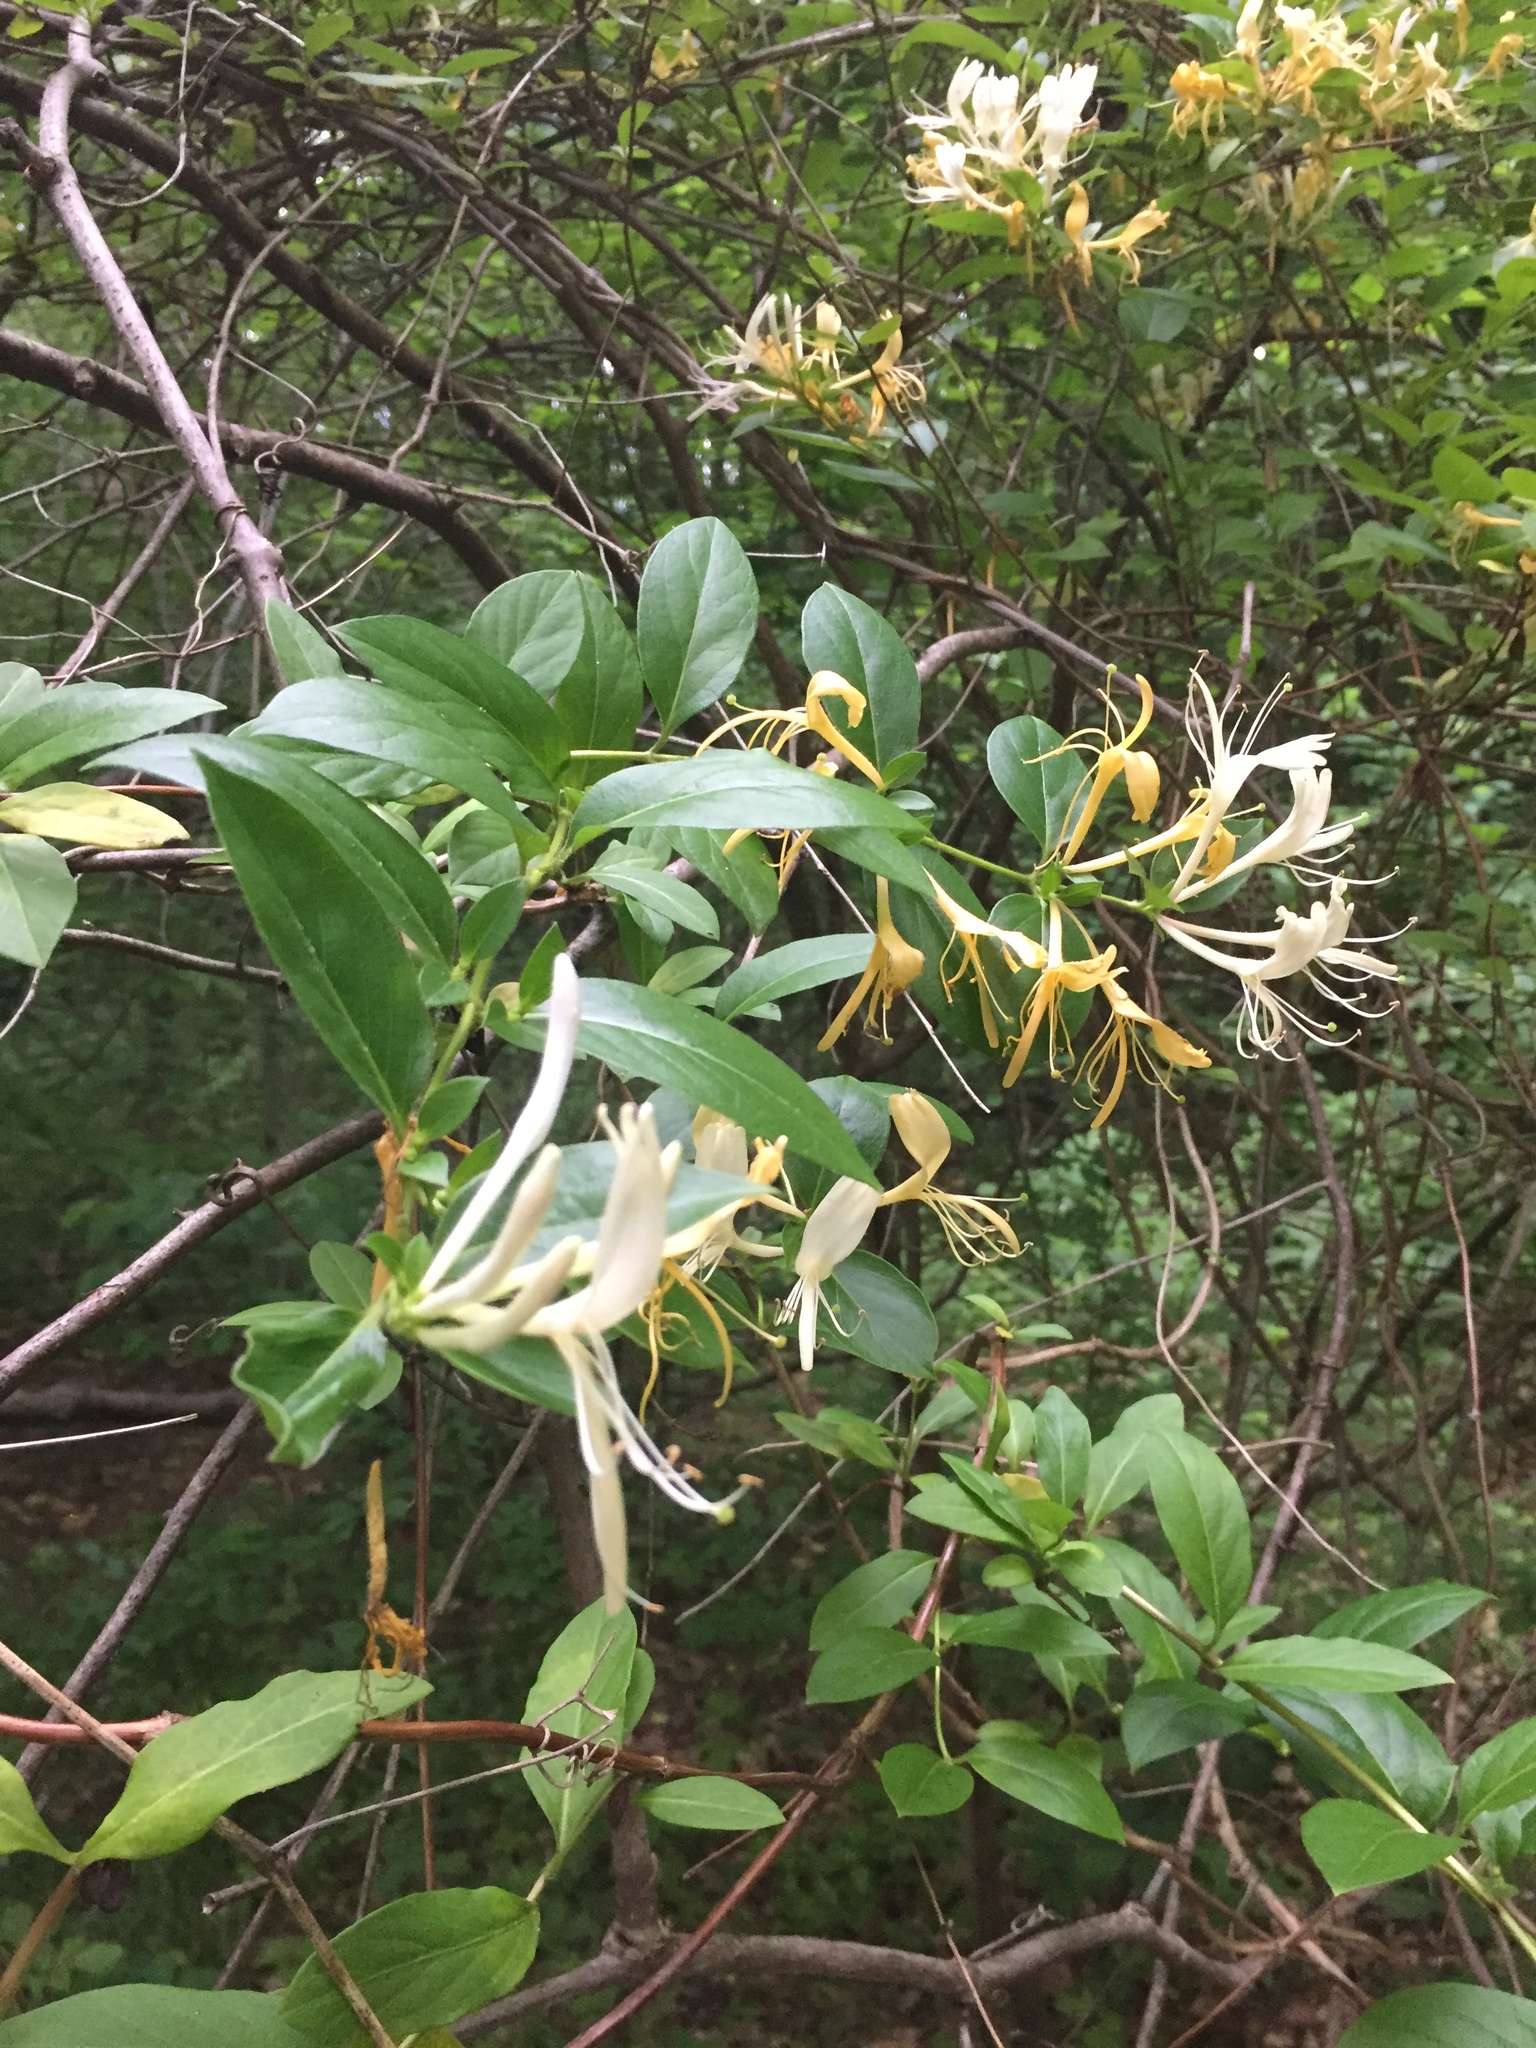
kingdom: Plantae
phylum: Tracheophyta
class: Magnoliopsida
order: Dipsacales
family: Caprifoliaceae
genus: Lonicera
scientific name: Lonicera japonica
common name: Japanese honeysuckle
